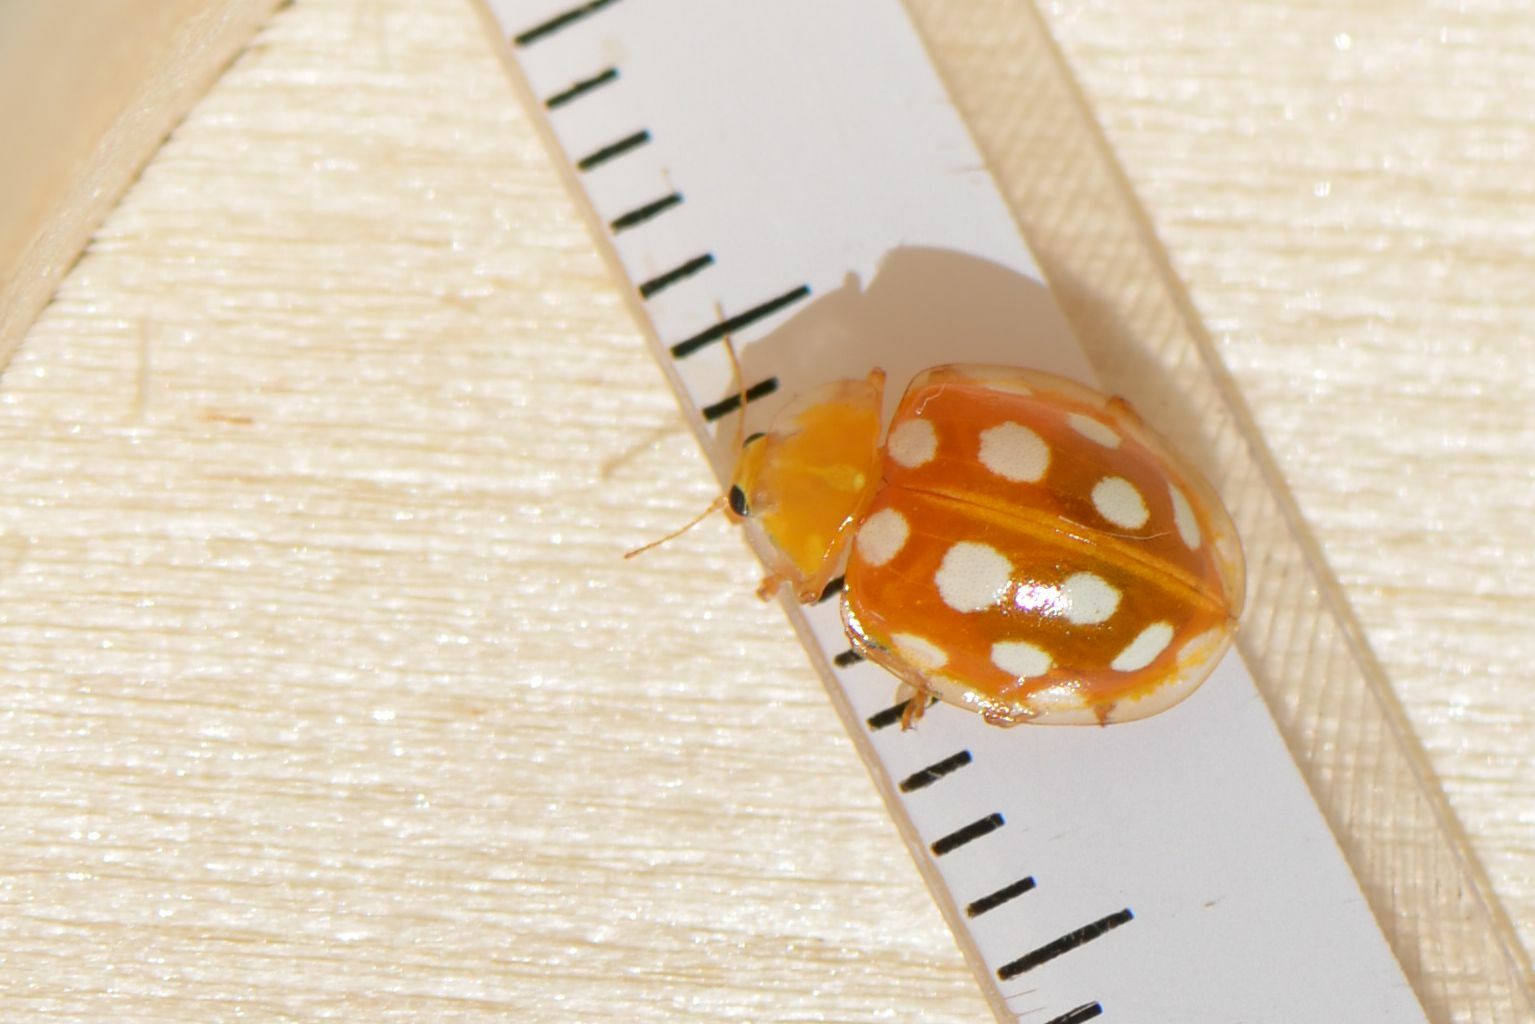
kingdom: Animalia
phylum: Arthropoda
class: Insecta
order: Coleoptera
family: Coccinellidae
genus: Halyzia
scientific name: Halyzia sedecimguttata
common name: Orange ladybird
